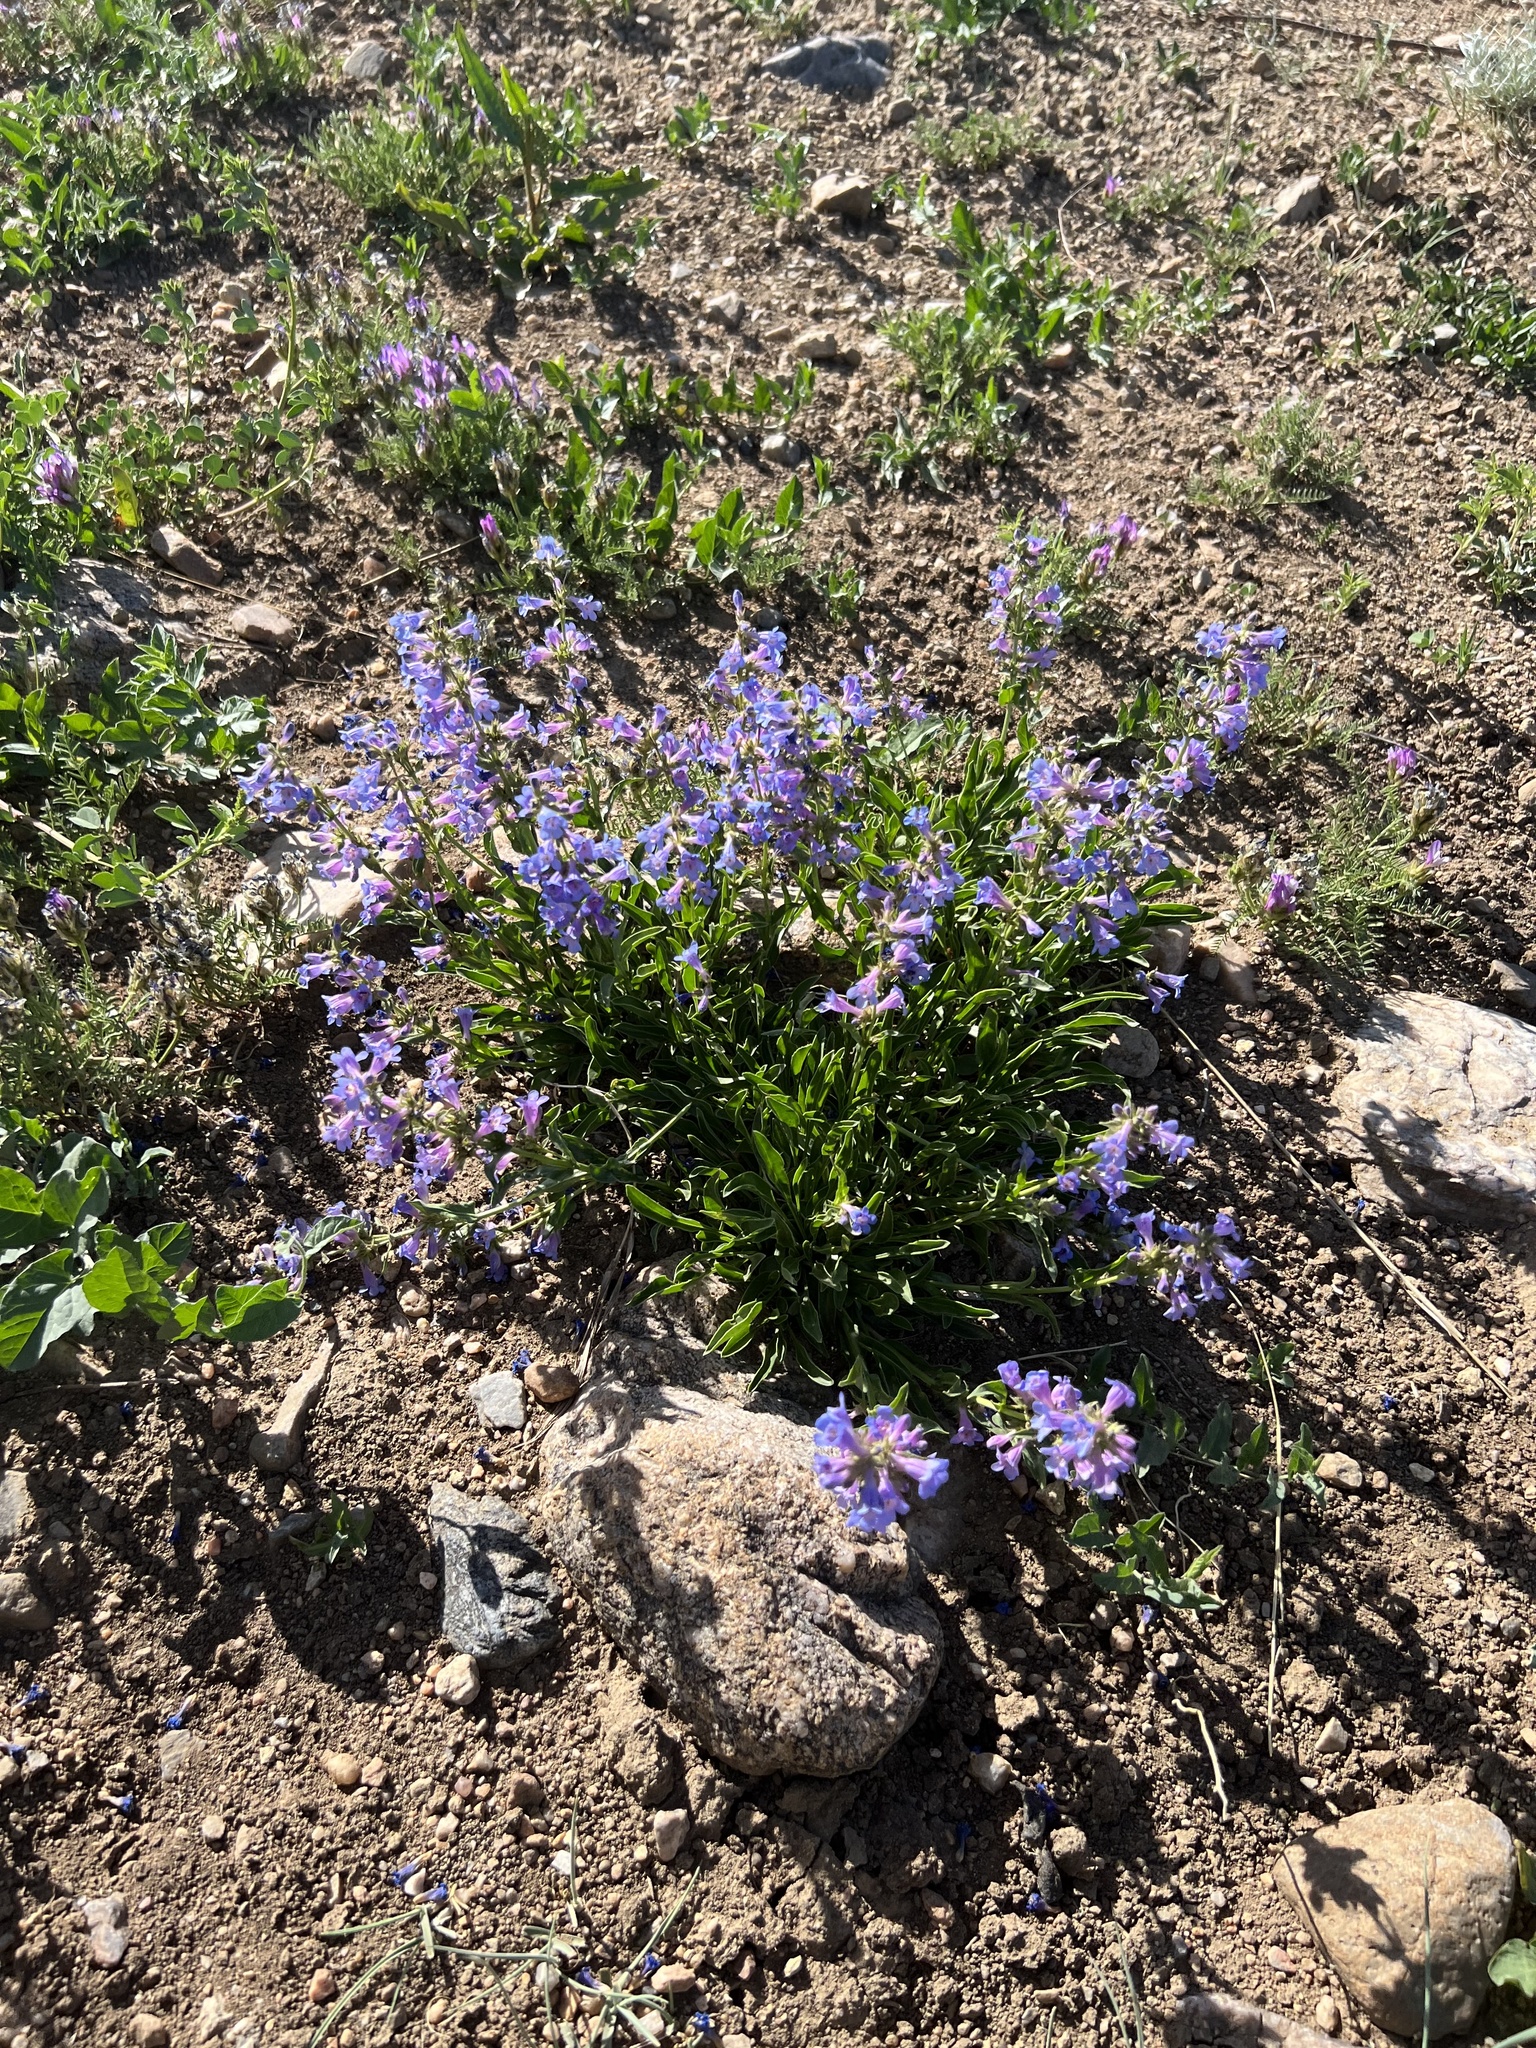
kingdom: Plantae
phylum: Tracheophyta
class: Magnoliopsida
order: Lamiales
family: Plantaginaceae
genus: Penstemon
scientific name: Penstemon virens
